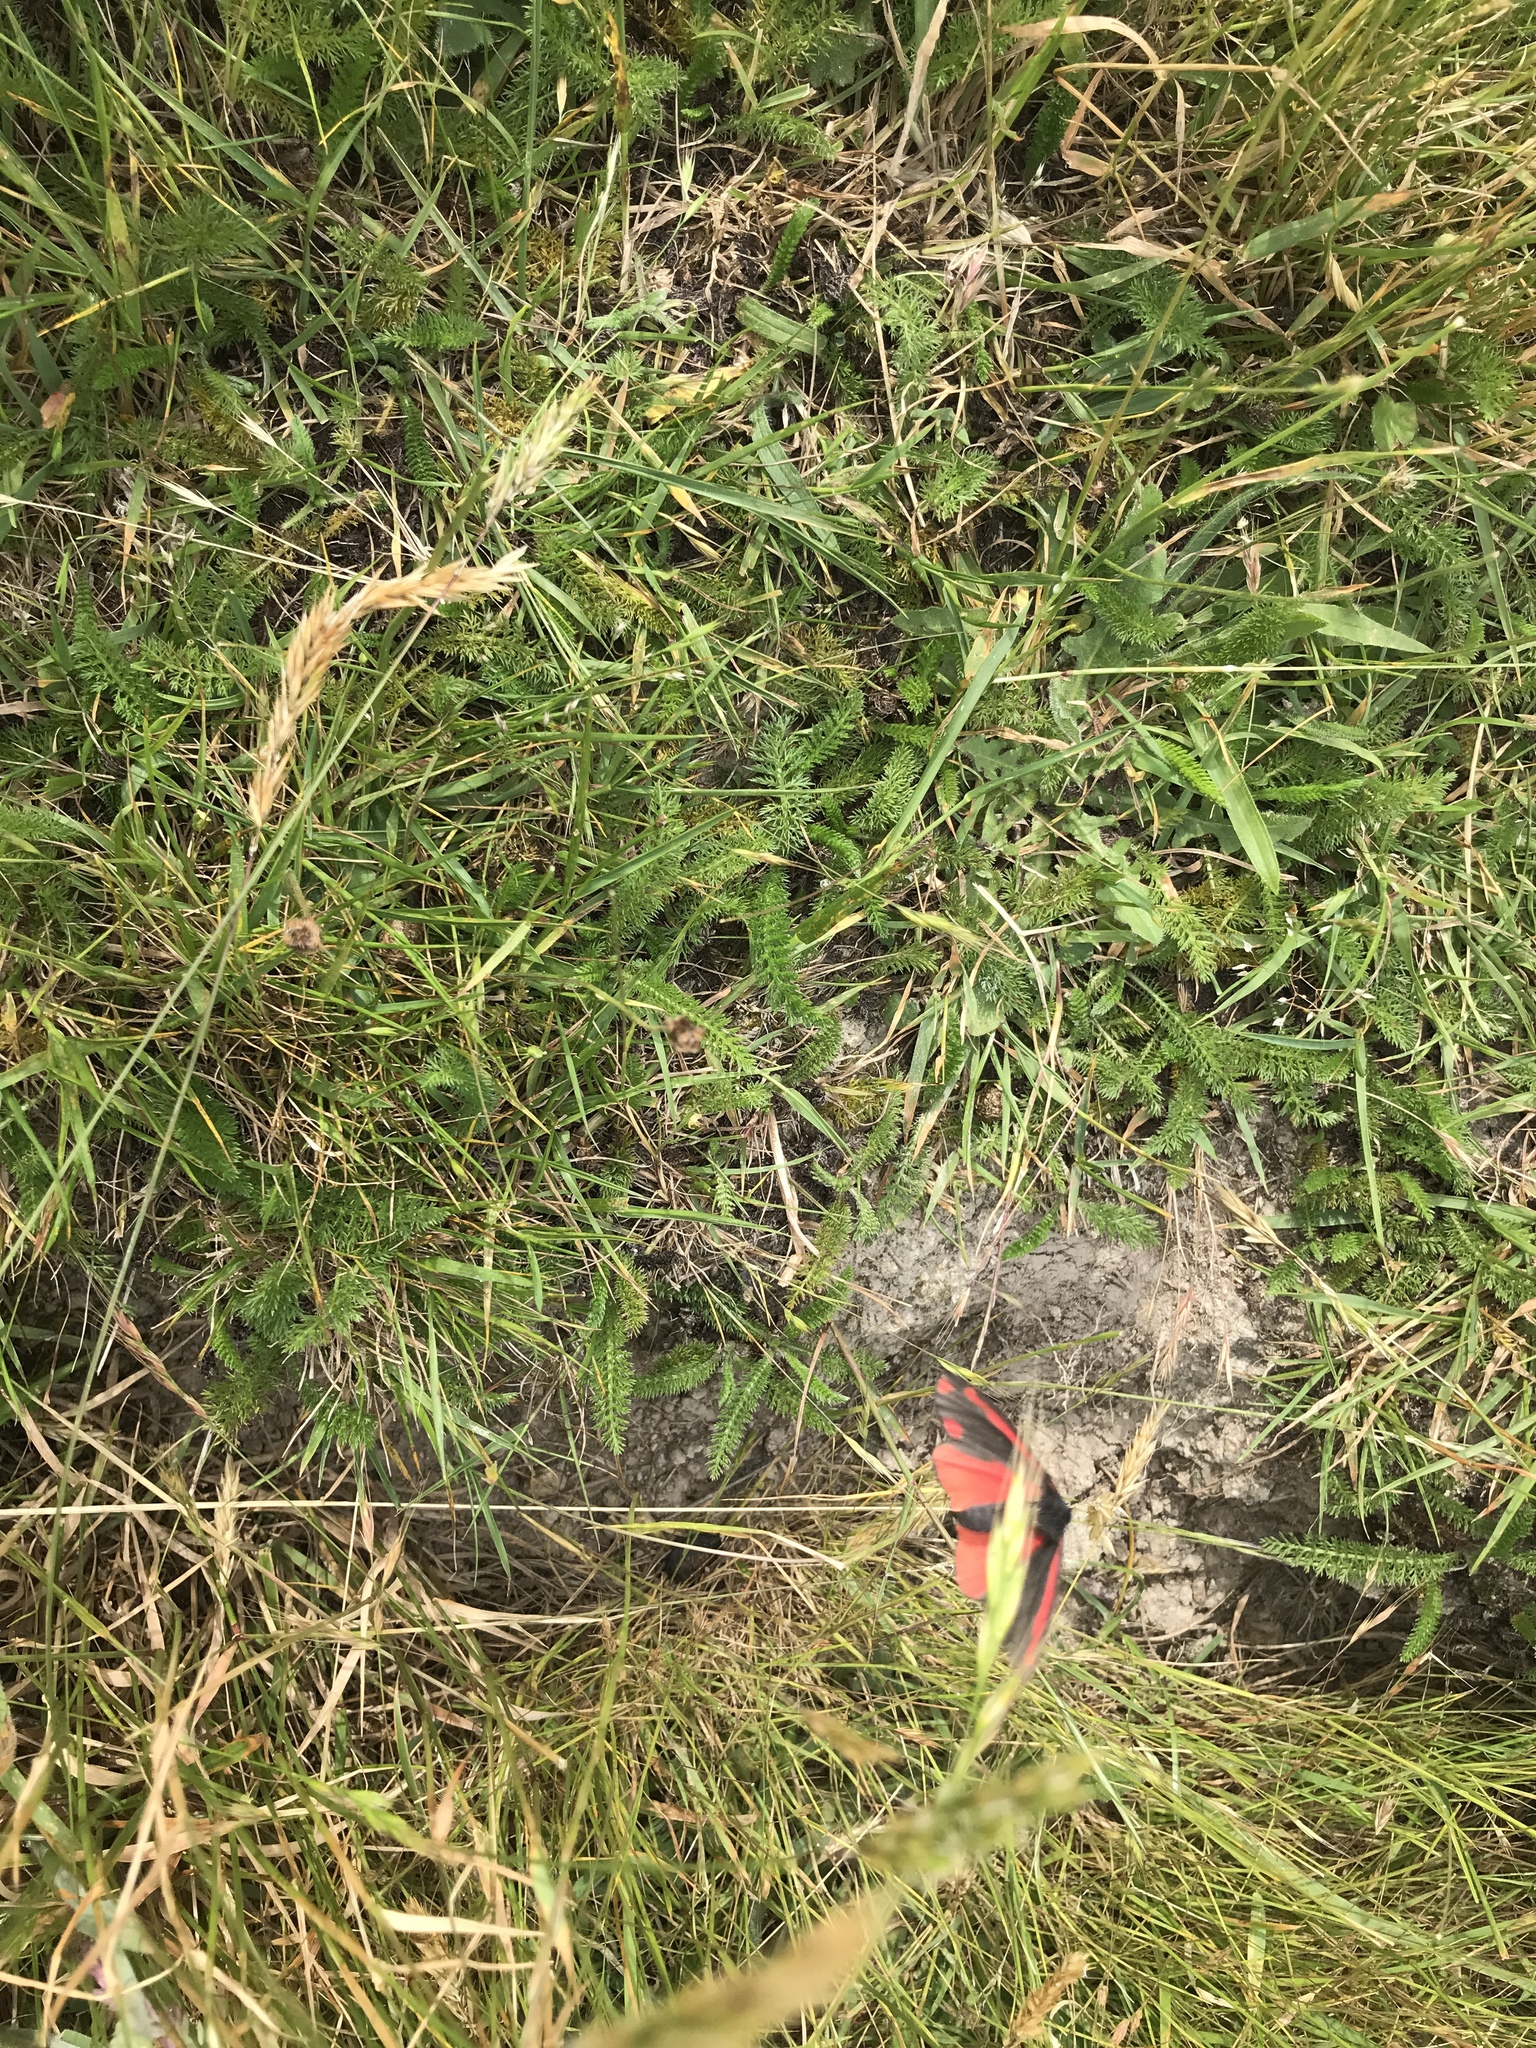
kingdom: Animalia
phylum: Arthropoda
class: Insecta
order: Lepidoptera
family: Erebidae
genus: Tyria
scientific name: Tyria jacobaeae
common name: Cinnabar
